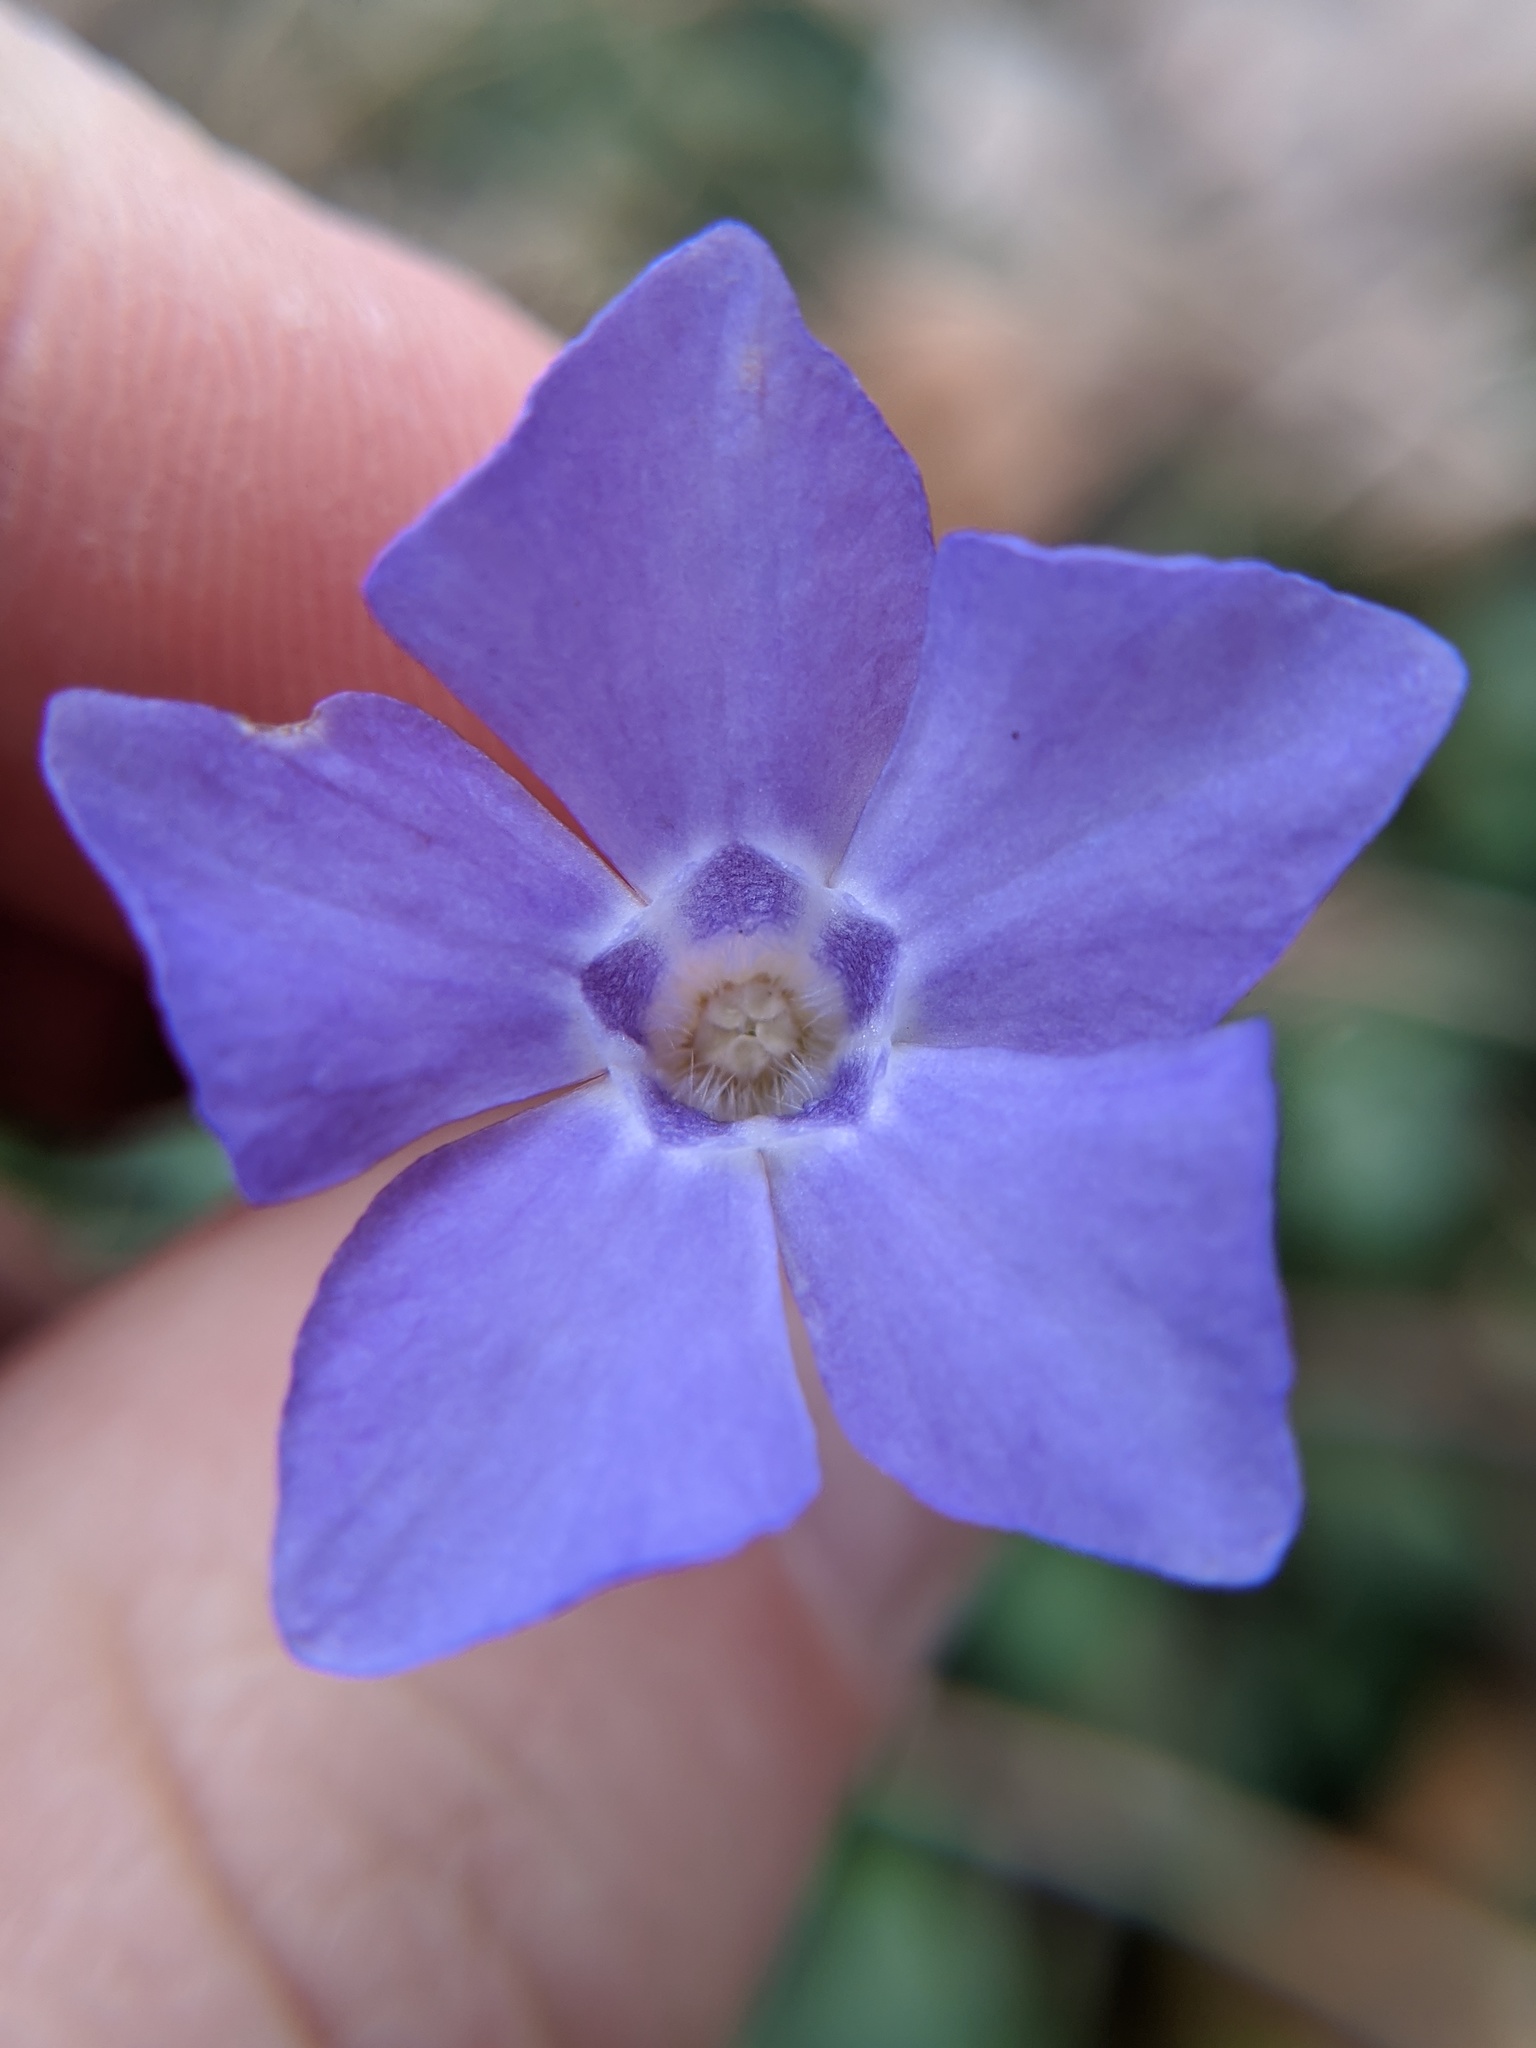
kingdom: Plantae
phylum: Tracheophyta
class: Magnoliopsida
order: Gentianales
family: Apocynaceae
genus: Vinca
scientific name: Vinca minor
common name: Lesser periwinkle
